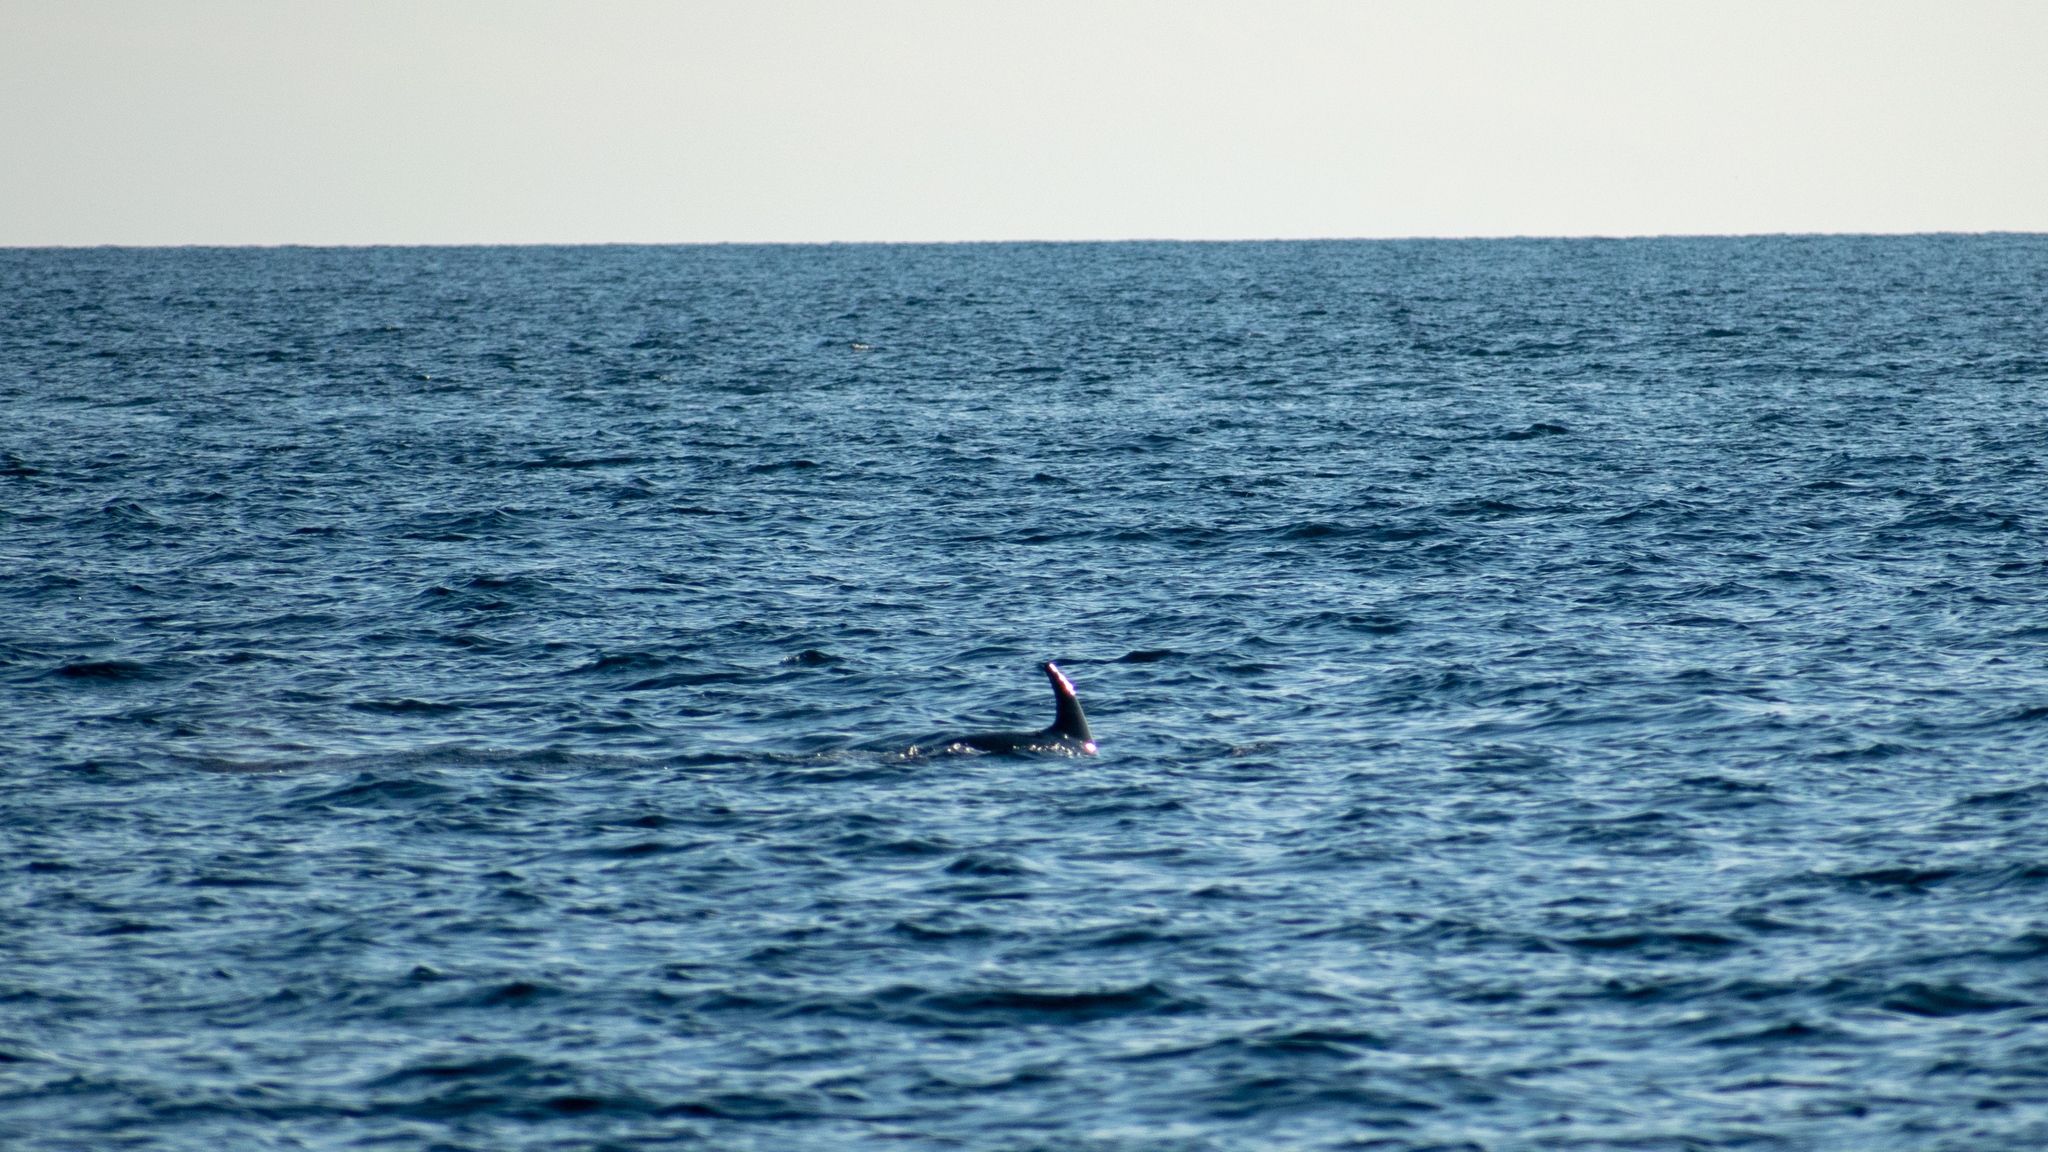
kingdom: Animalia
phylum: Chordata
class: Mammalia
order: Cetacea
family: Delphinidae
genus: Tursiops
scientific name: Tursiops truncatus
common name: Bottlenose dolphin
